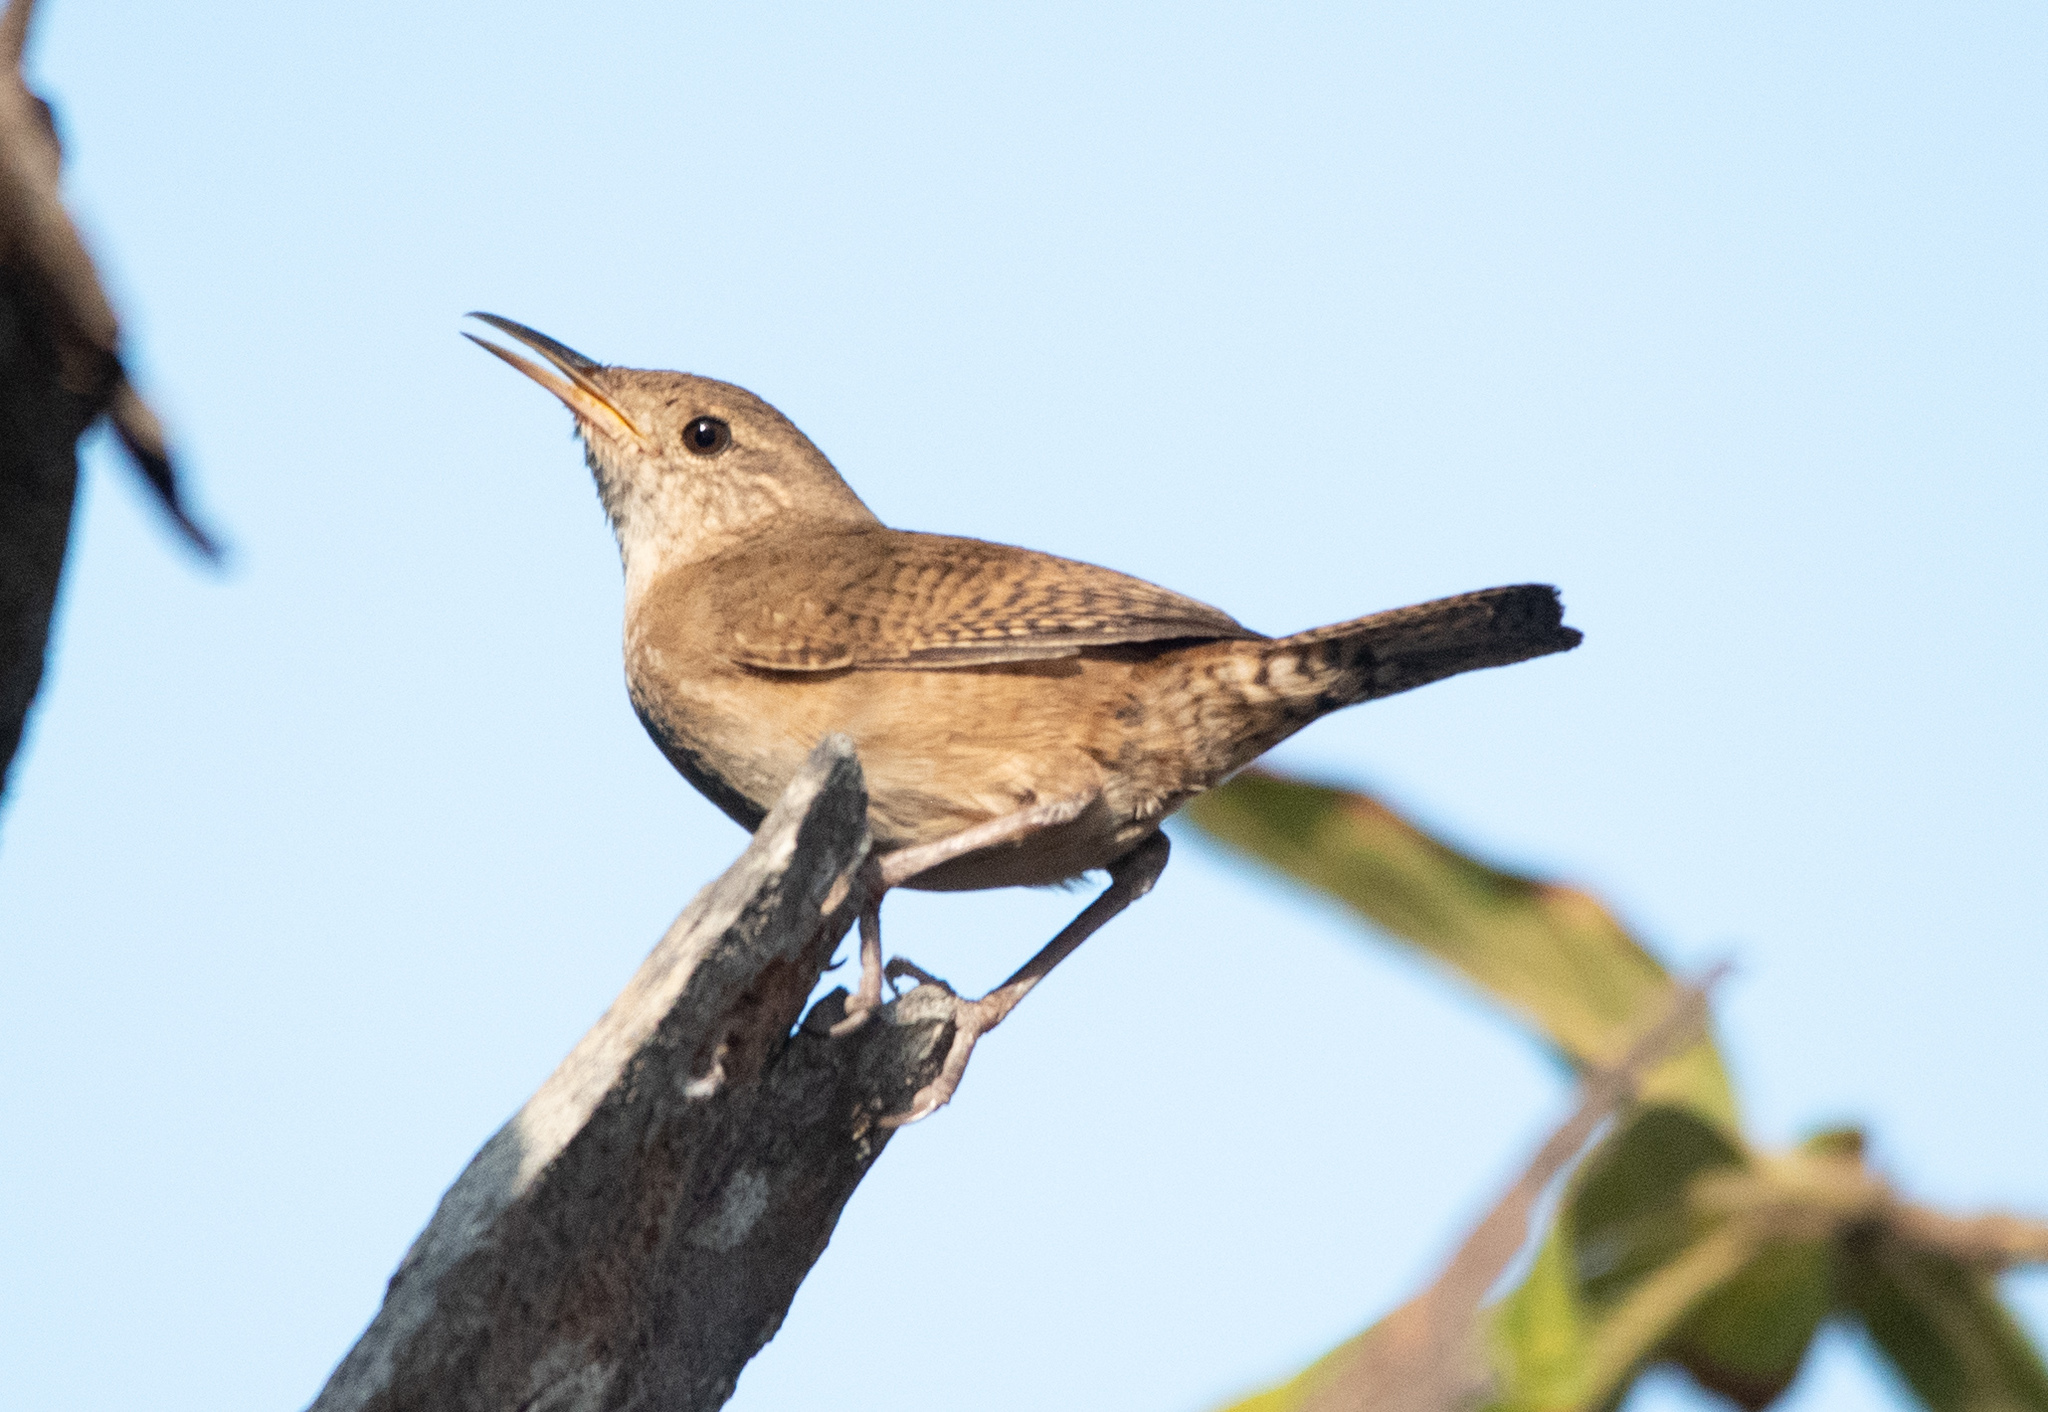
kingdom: Animalia
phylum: Chordata
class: Aves
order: Passeriformes
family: Troglodytidae
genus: Troglodytes
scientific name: Troglodytes aedon
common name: House wren
